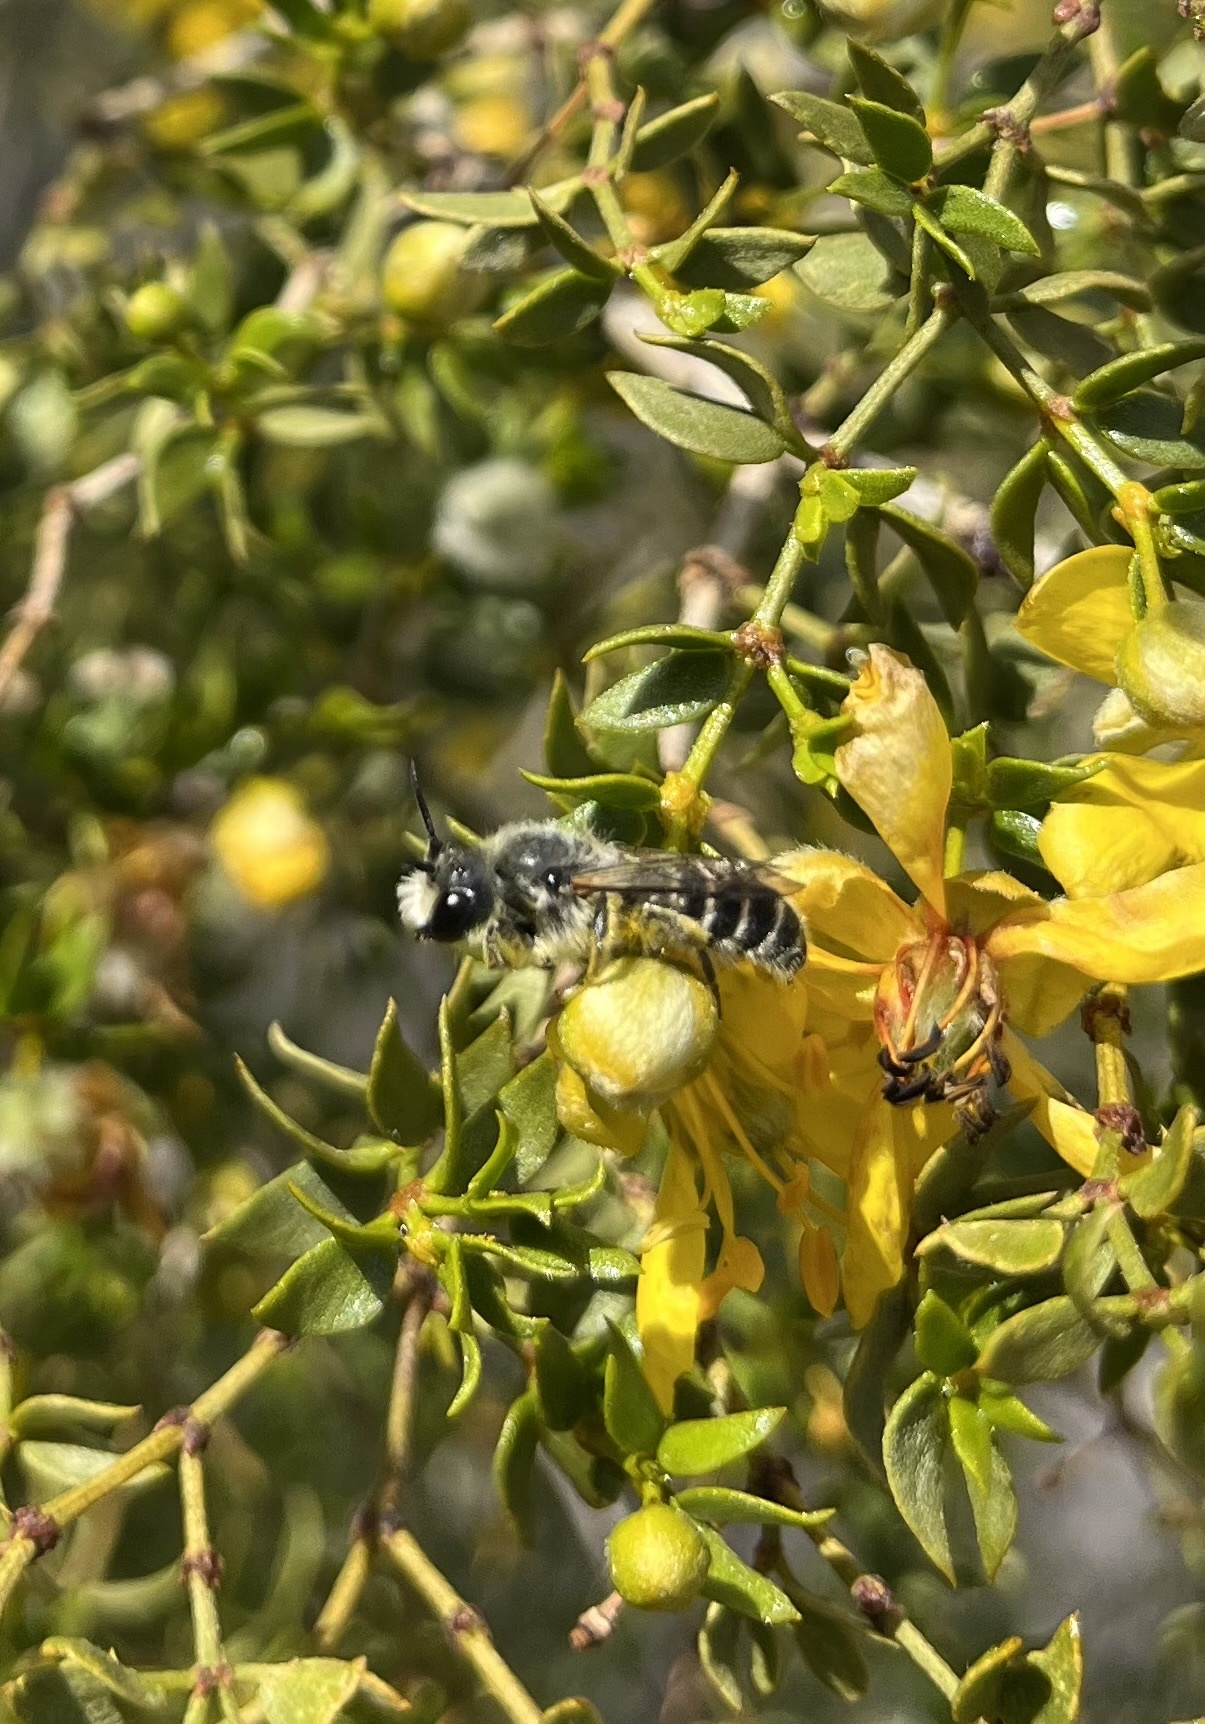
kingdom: Animalia
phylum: Arthropoda
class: Insecta
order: Hymenoptera
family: Megachilidae
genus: Hoplitis
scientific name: Hoplitis biscutellae
